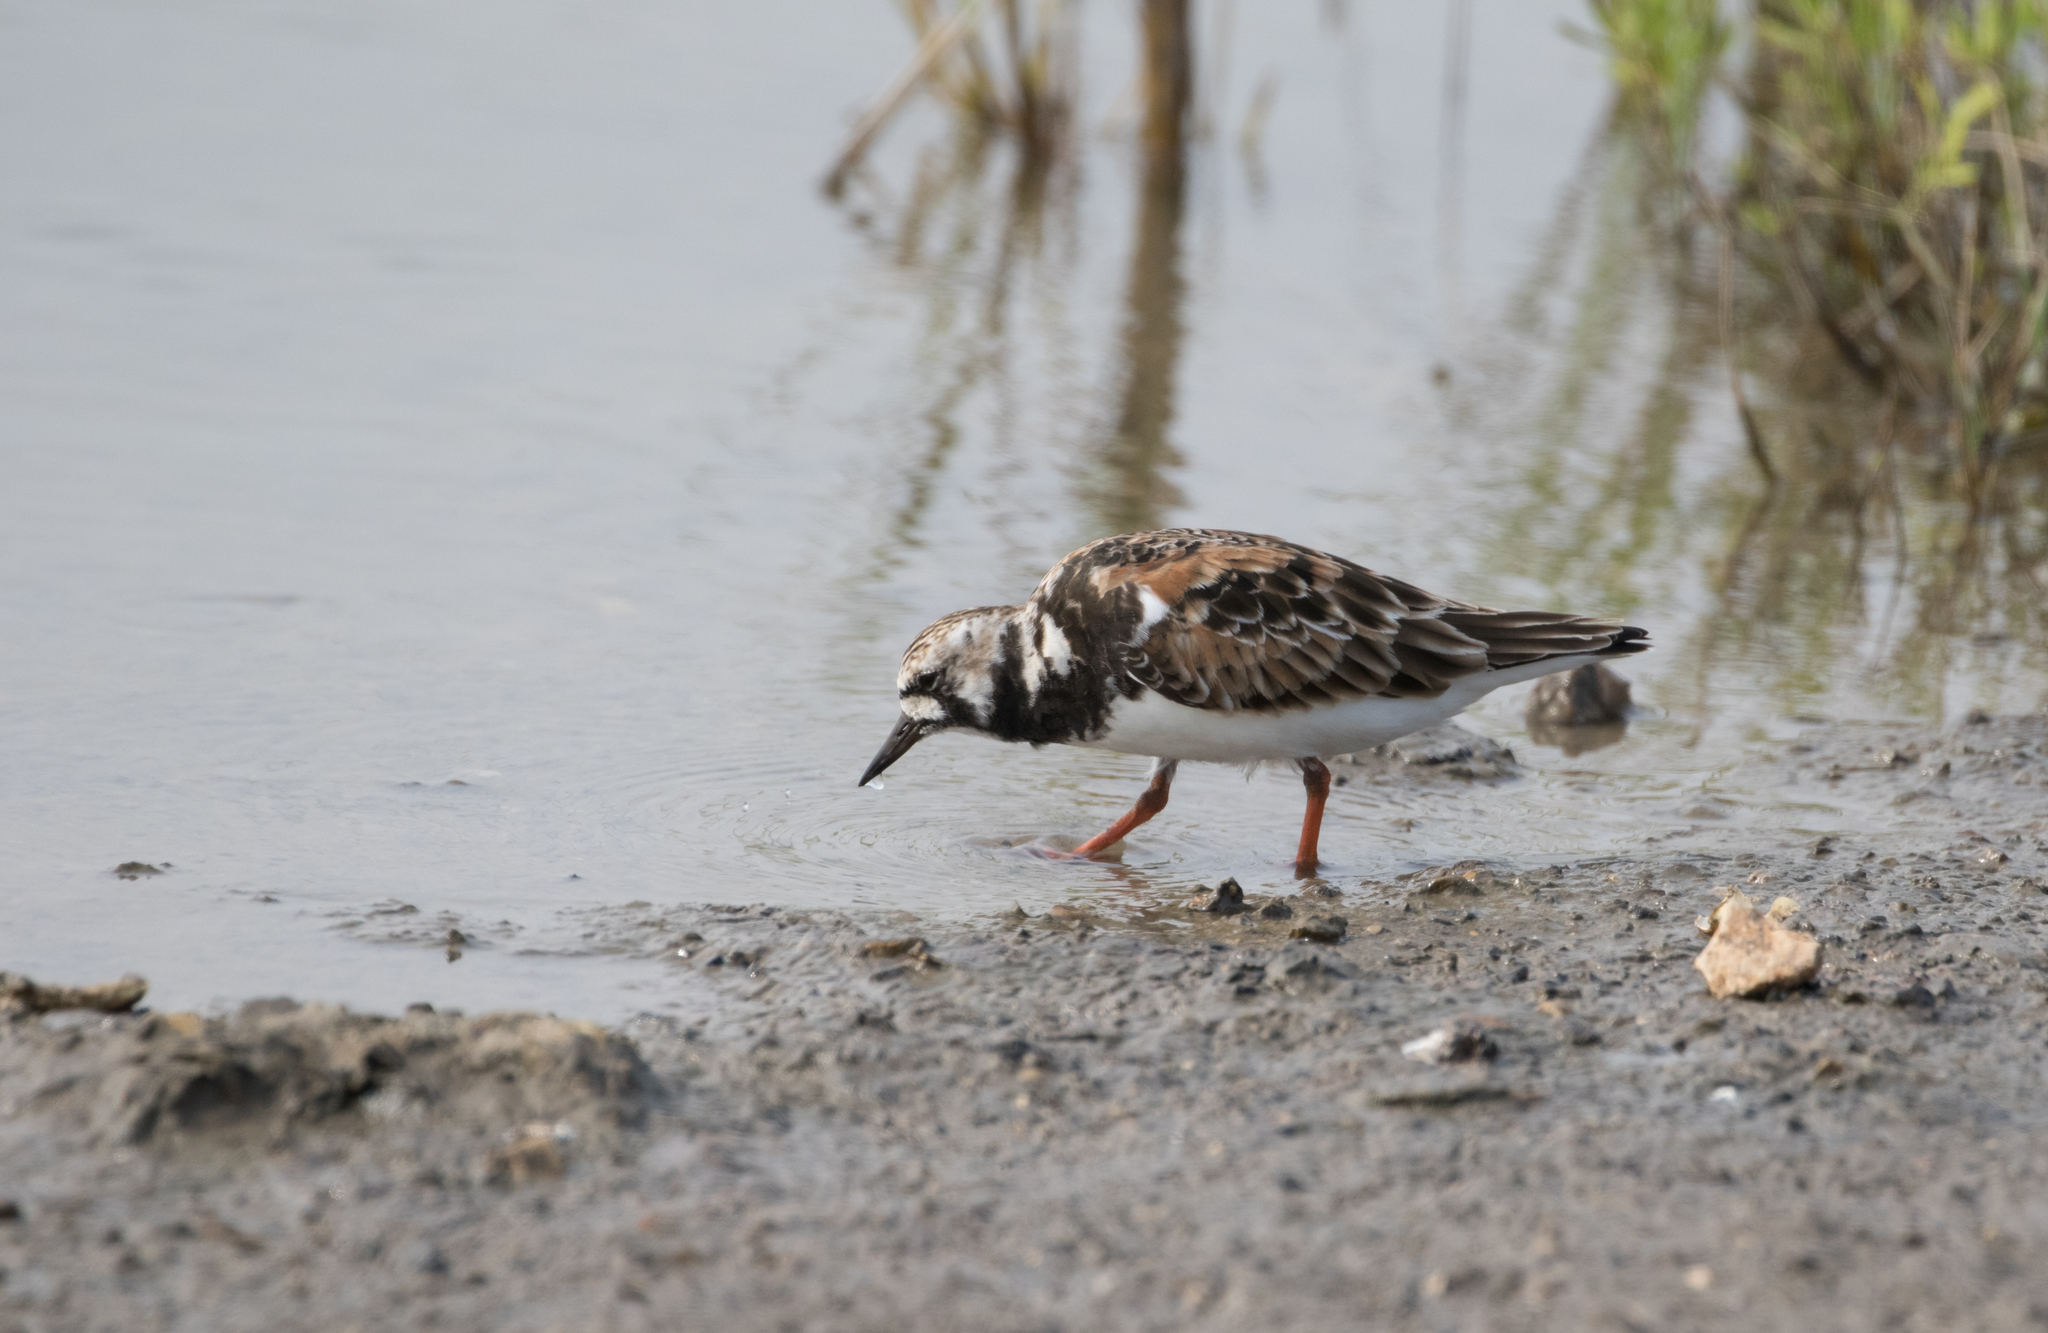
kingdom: Animalia
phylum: Chordata
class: Aves
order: Charadriiformes
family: Scolopacidae
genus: Arenaria
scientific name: Arenaria interpres
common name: Ruddy turnstone
